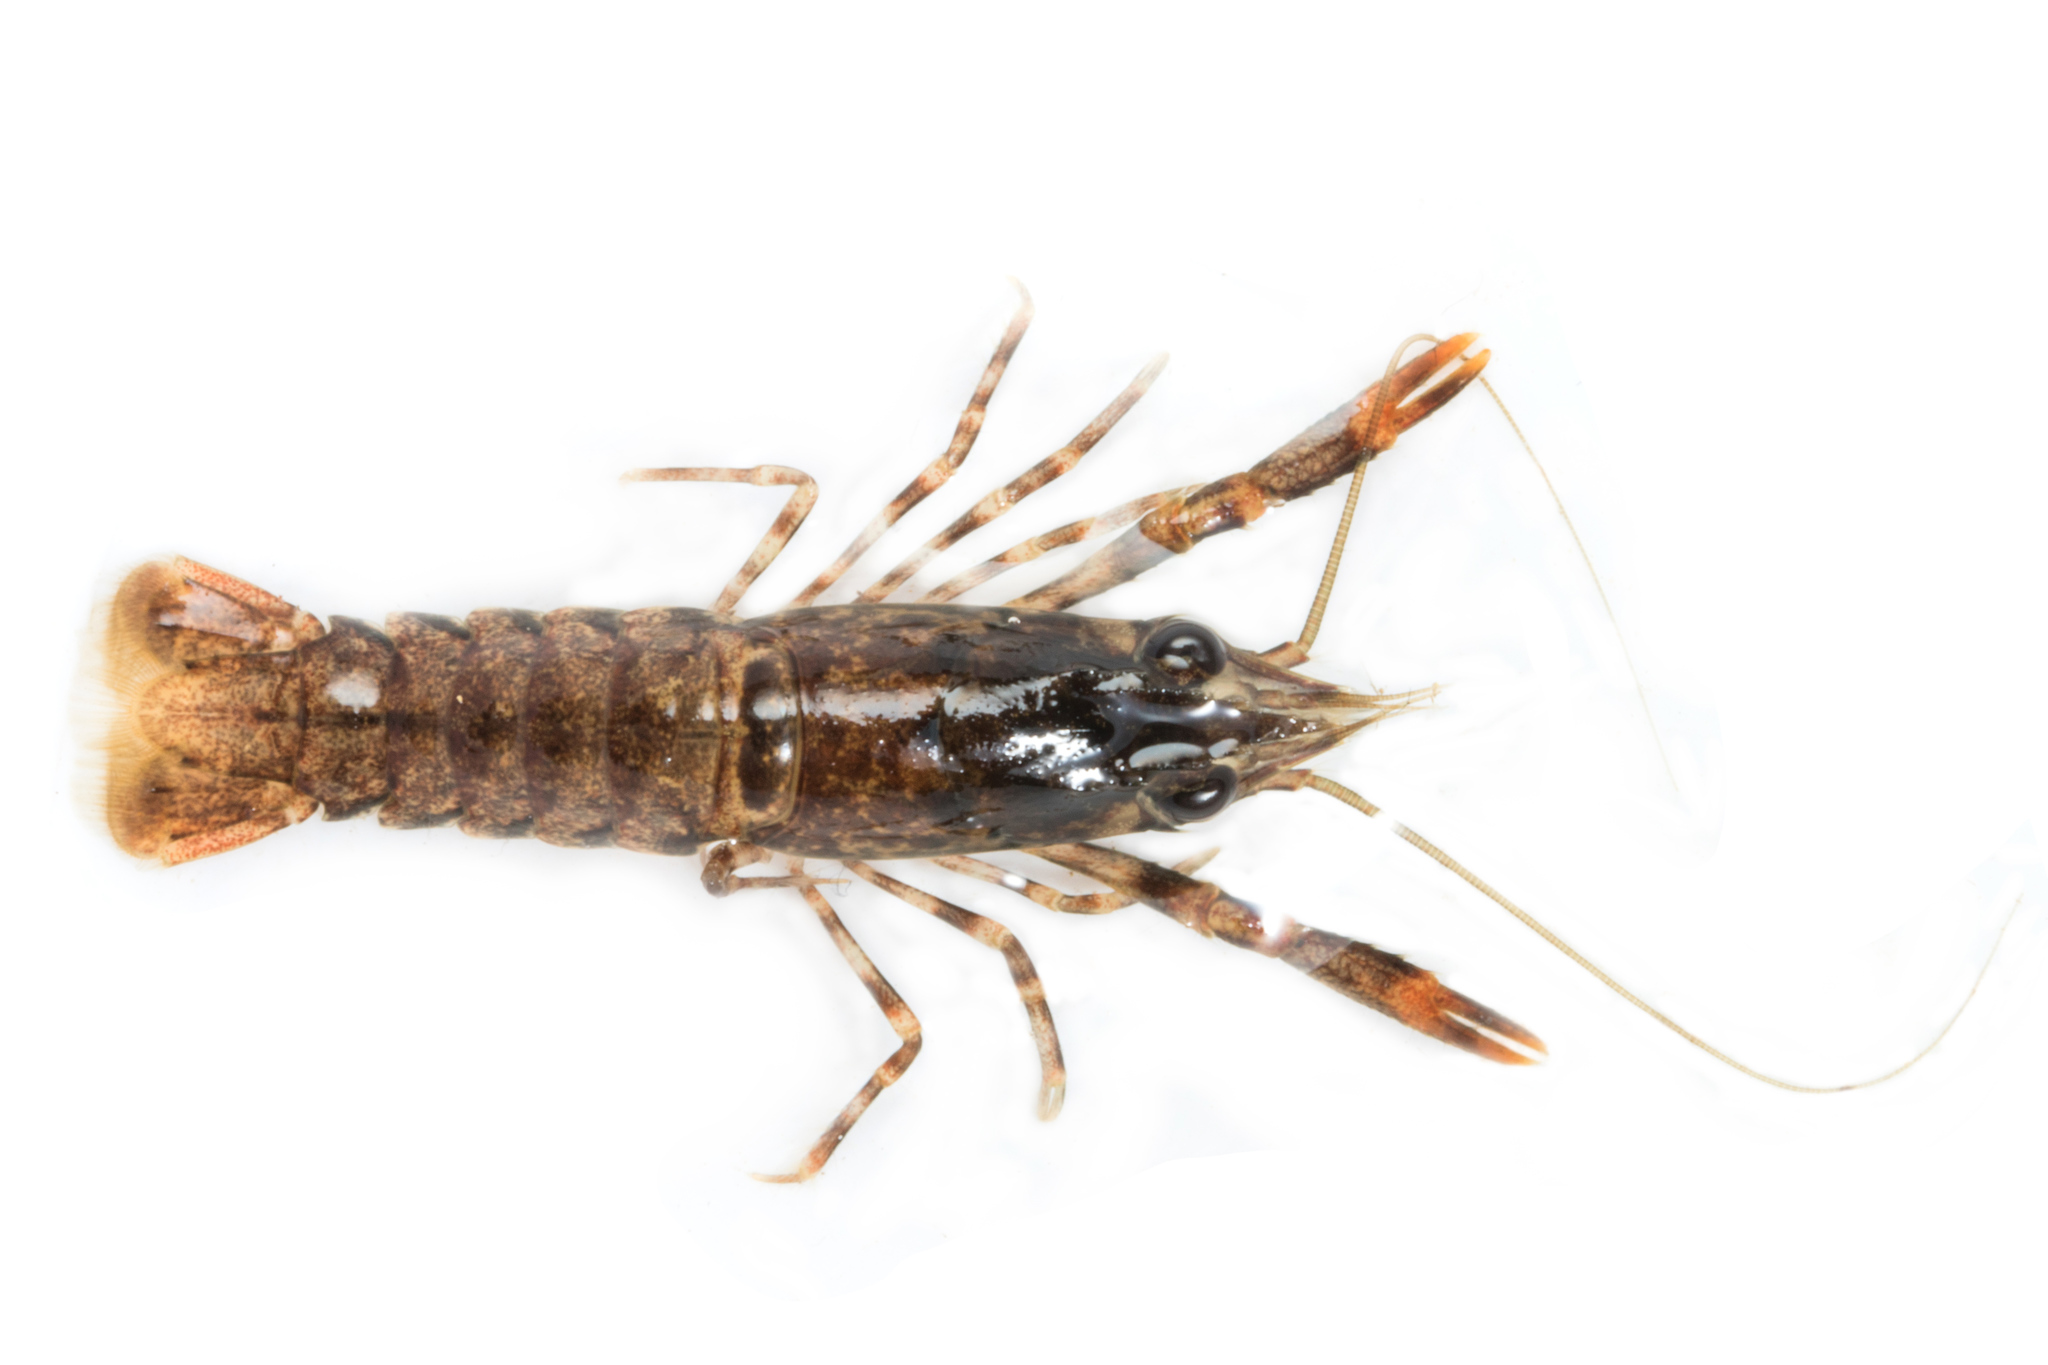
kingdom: Animalia
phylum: Arthropoda
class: Malacostraca
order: Decapoda
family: Parastacidae
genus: Paranephrops
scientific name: Paranephrops planifrons
